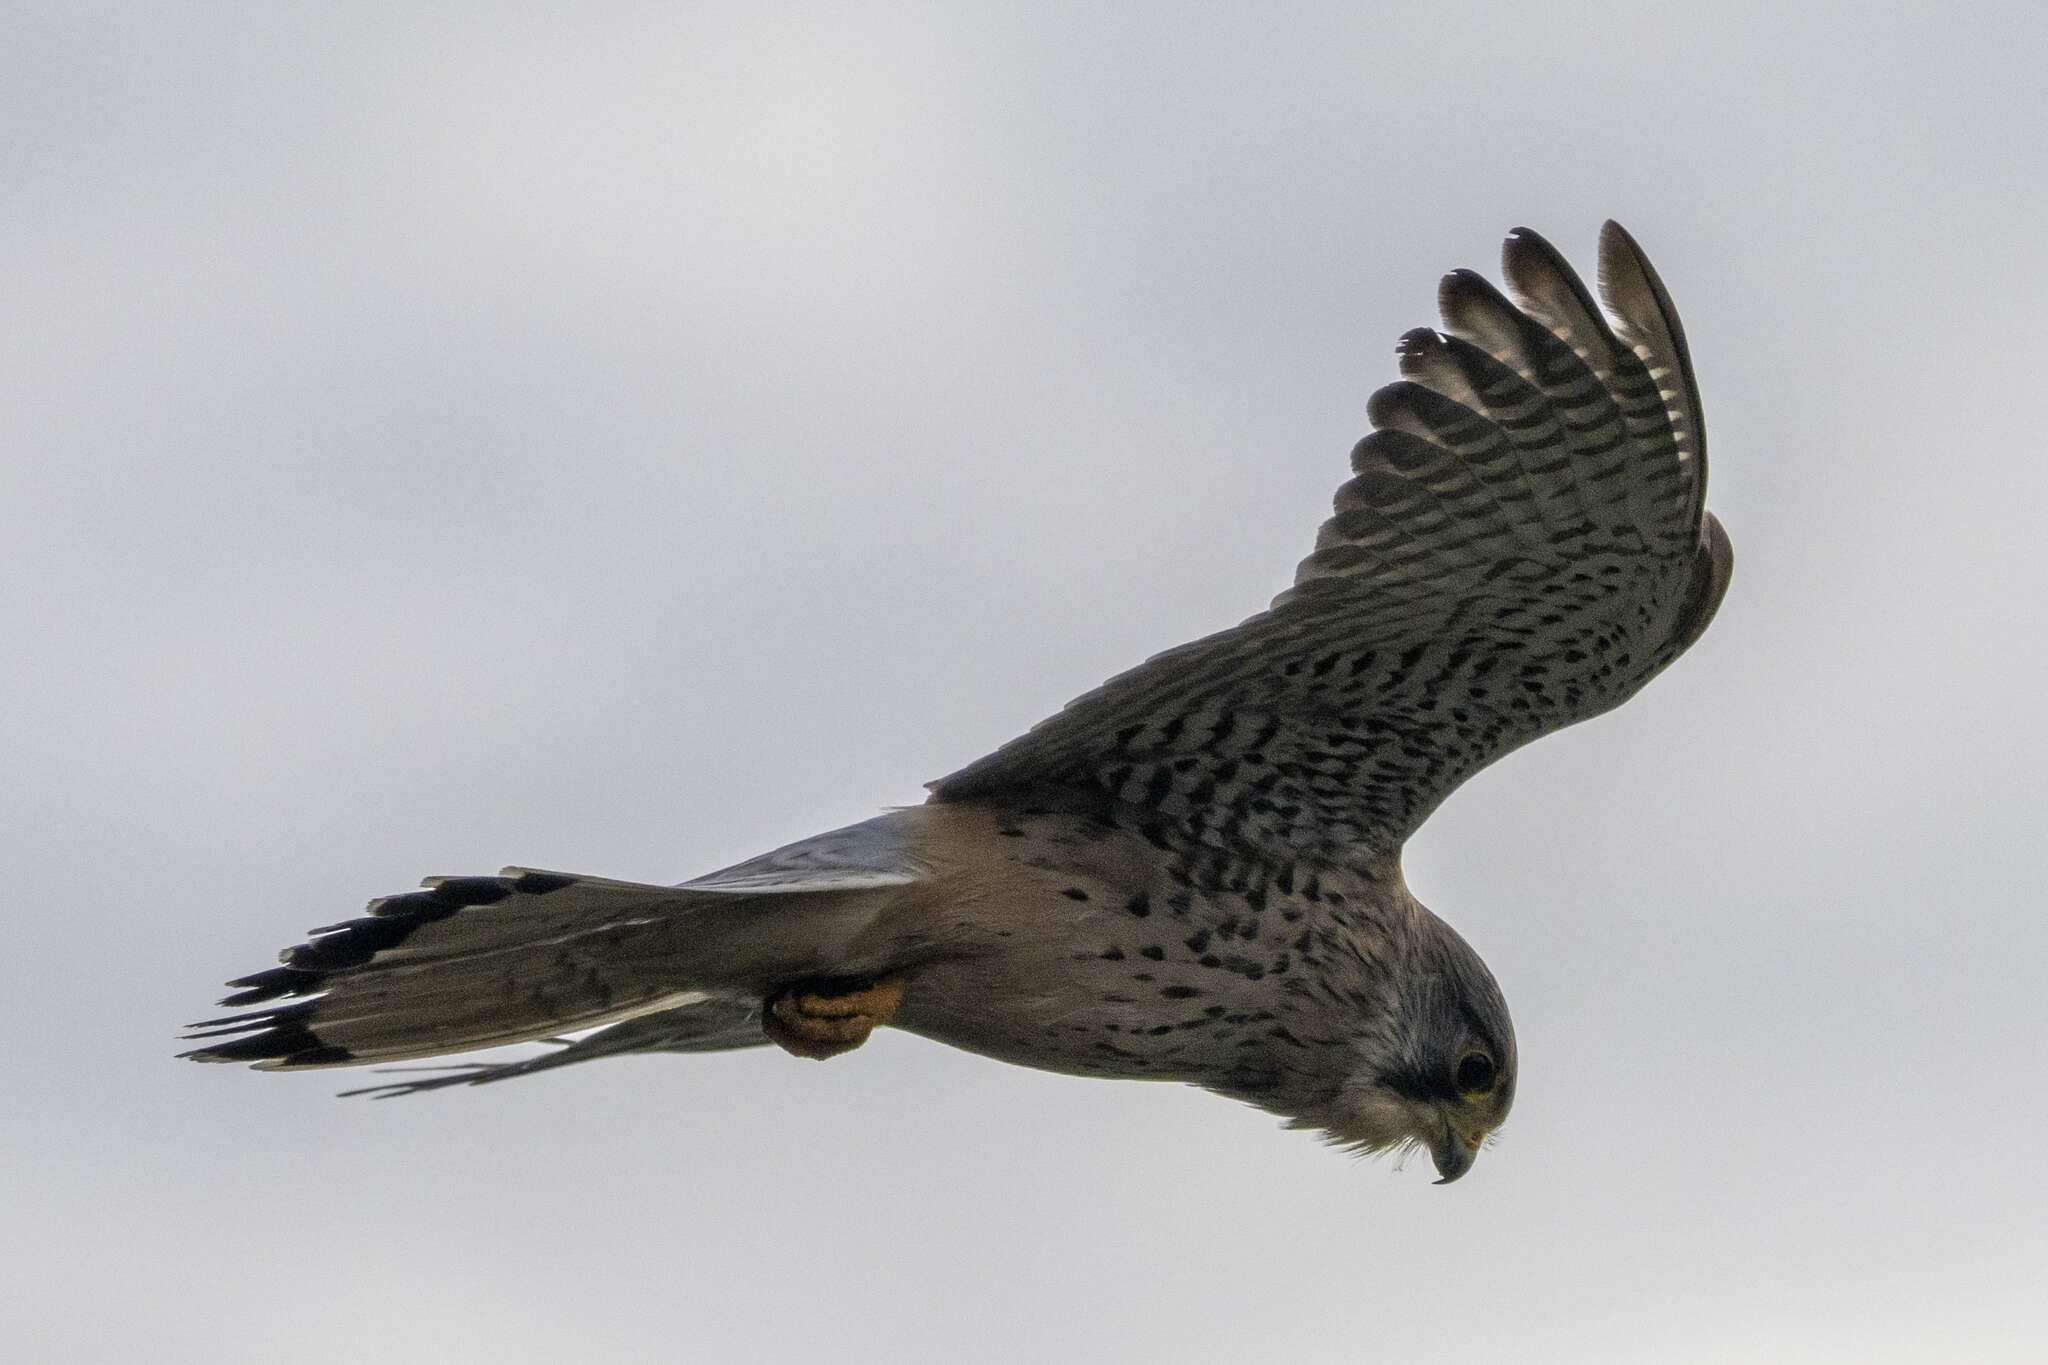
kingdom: Animalia
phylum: Chordata
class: Aves
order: Falconiformes
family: Falconidae
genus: Falco
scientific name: Falco tinnunculus
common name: Common kestrel
